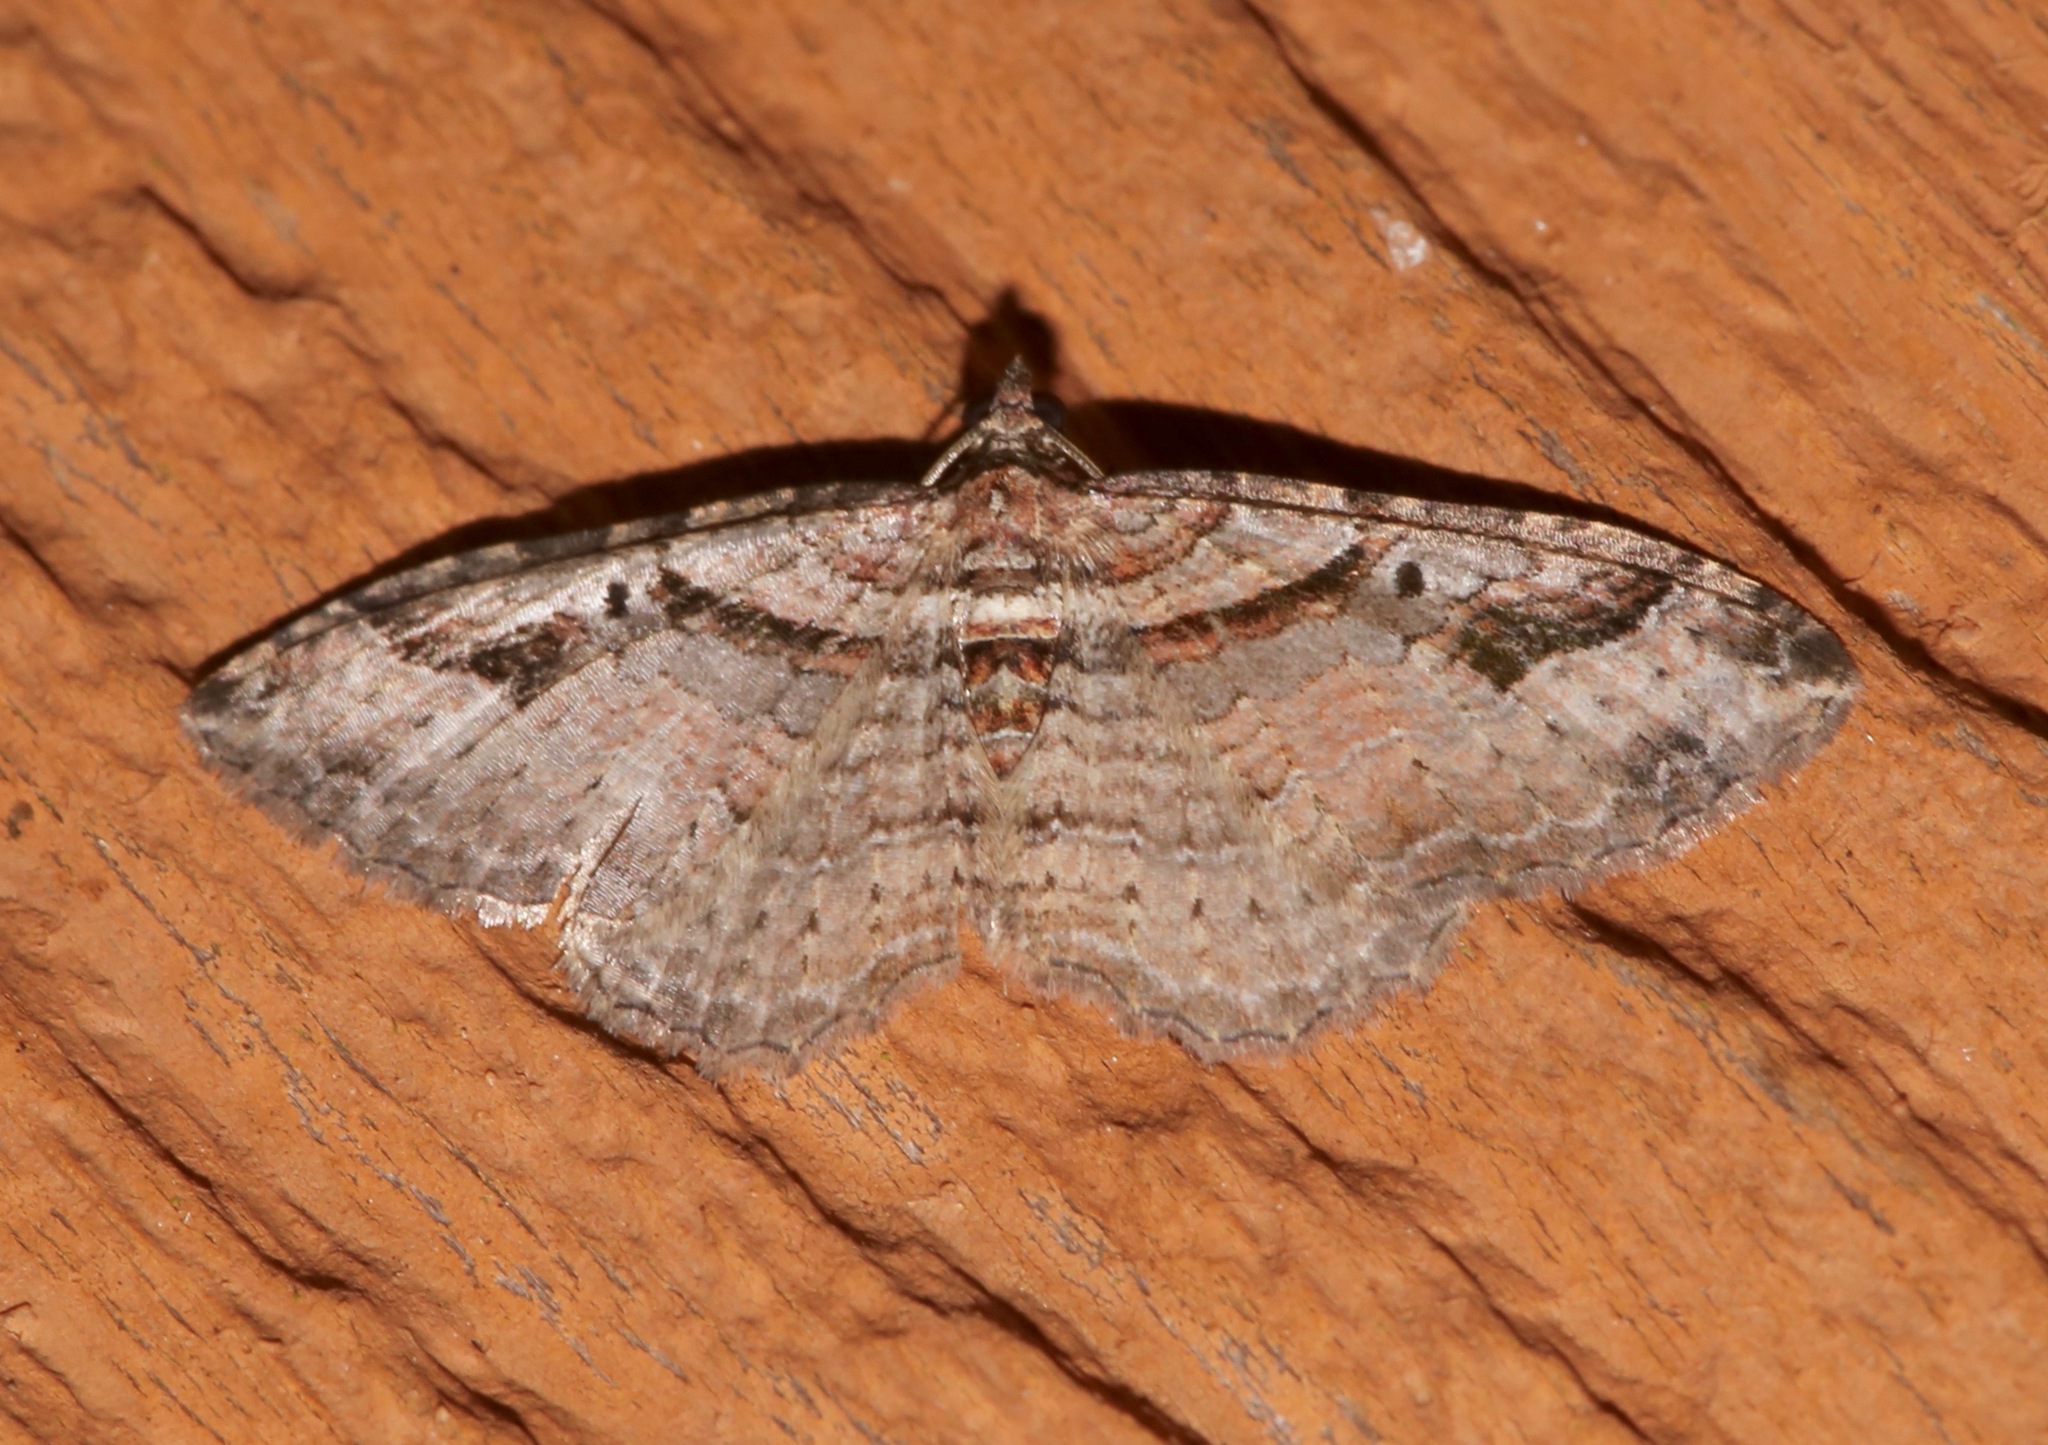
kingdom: Animalia
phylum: Arthropoda
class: Insecta
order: Lepidoptera
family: Geometridae
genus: Costaconvexa
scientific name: Costaconvexa centrostrigaria
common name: Bent-line carpet
